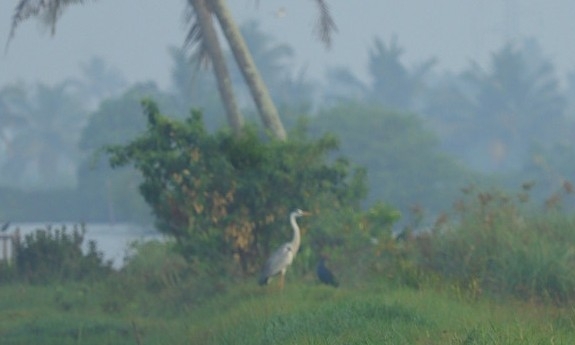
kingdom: Animalia
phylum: Chordata
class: Aves
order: Pelecaniformes
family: Ardeidae
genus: Ardea
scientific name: Ardea cinerea
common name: Grey heron
